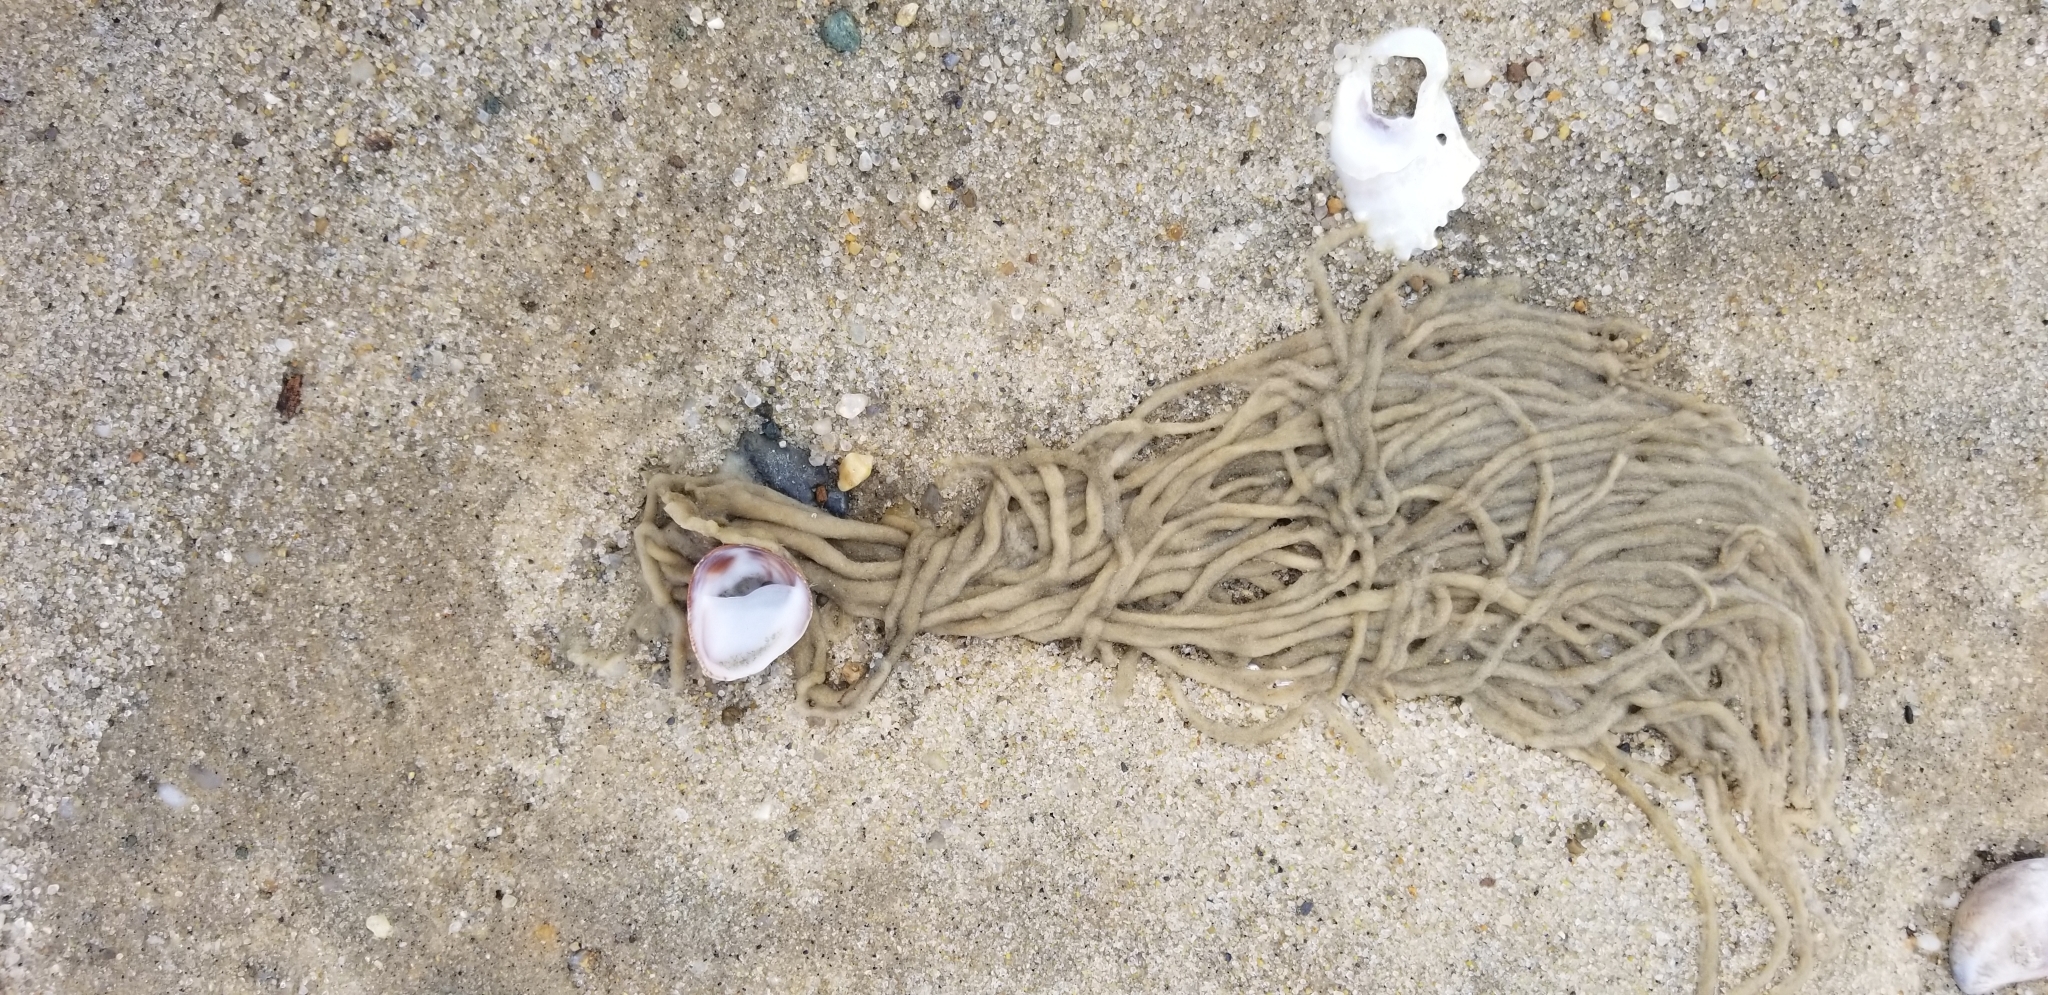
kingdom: Plantae
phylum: Chlorophyta
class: Ulvophyceae
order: Bryopsidales
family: Codiaceae
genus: Codium
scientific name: Codium fragile
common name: Dead man's fingers
